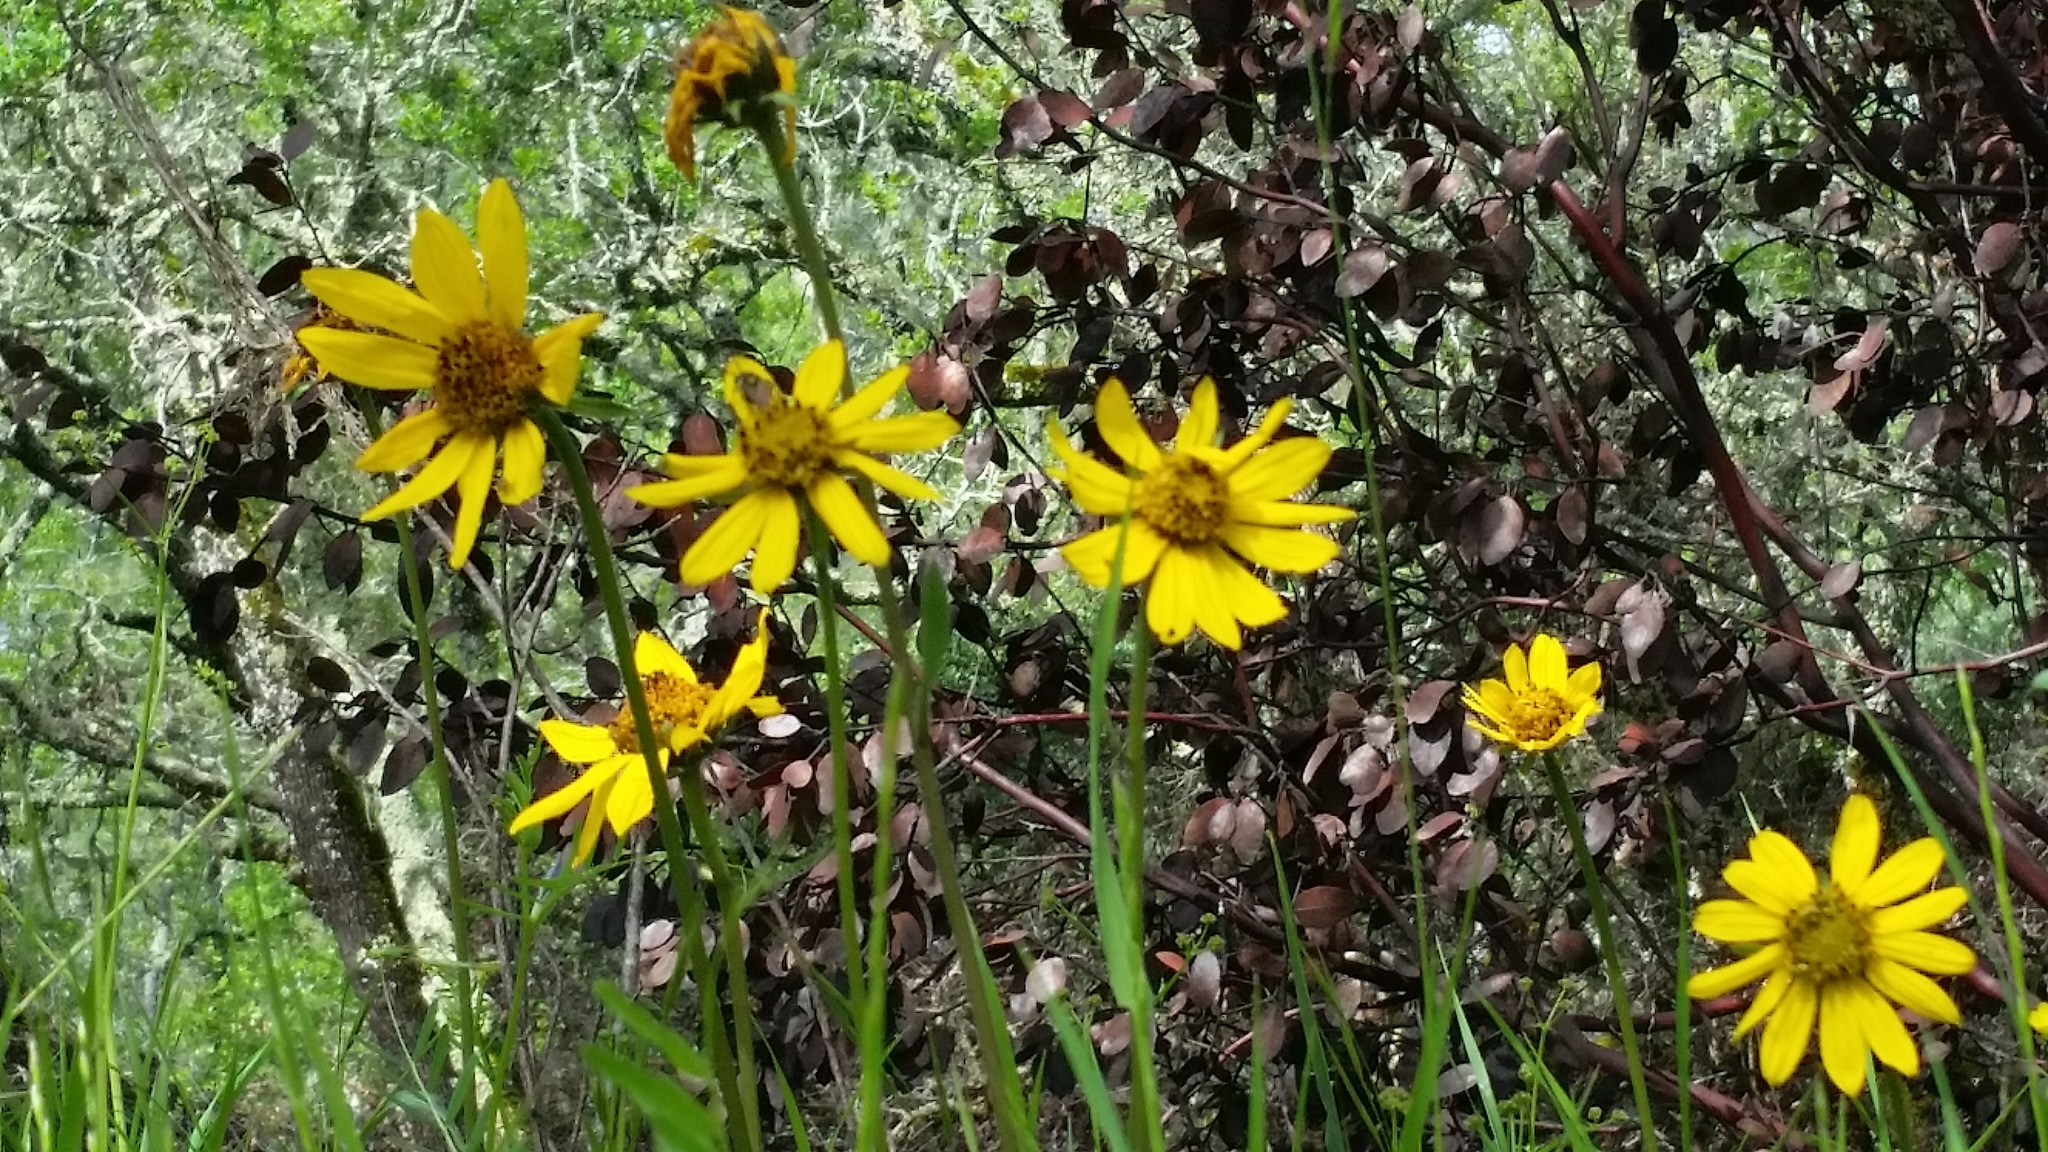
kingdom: Plantae
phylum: Tracheophyta
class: Magnoliopsida
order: Asterales
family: Asteraceae
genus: Wyethia
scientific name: Wyethia angustifolia
